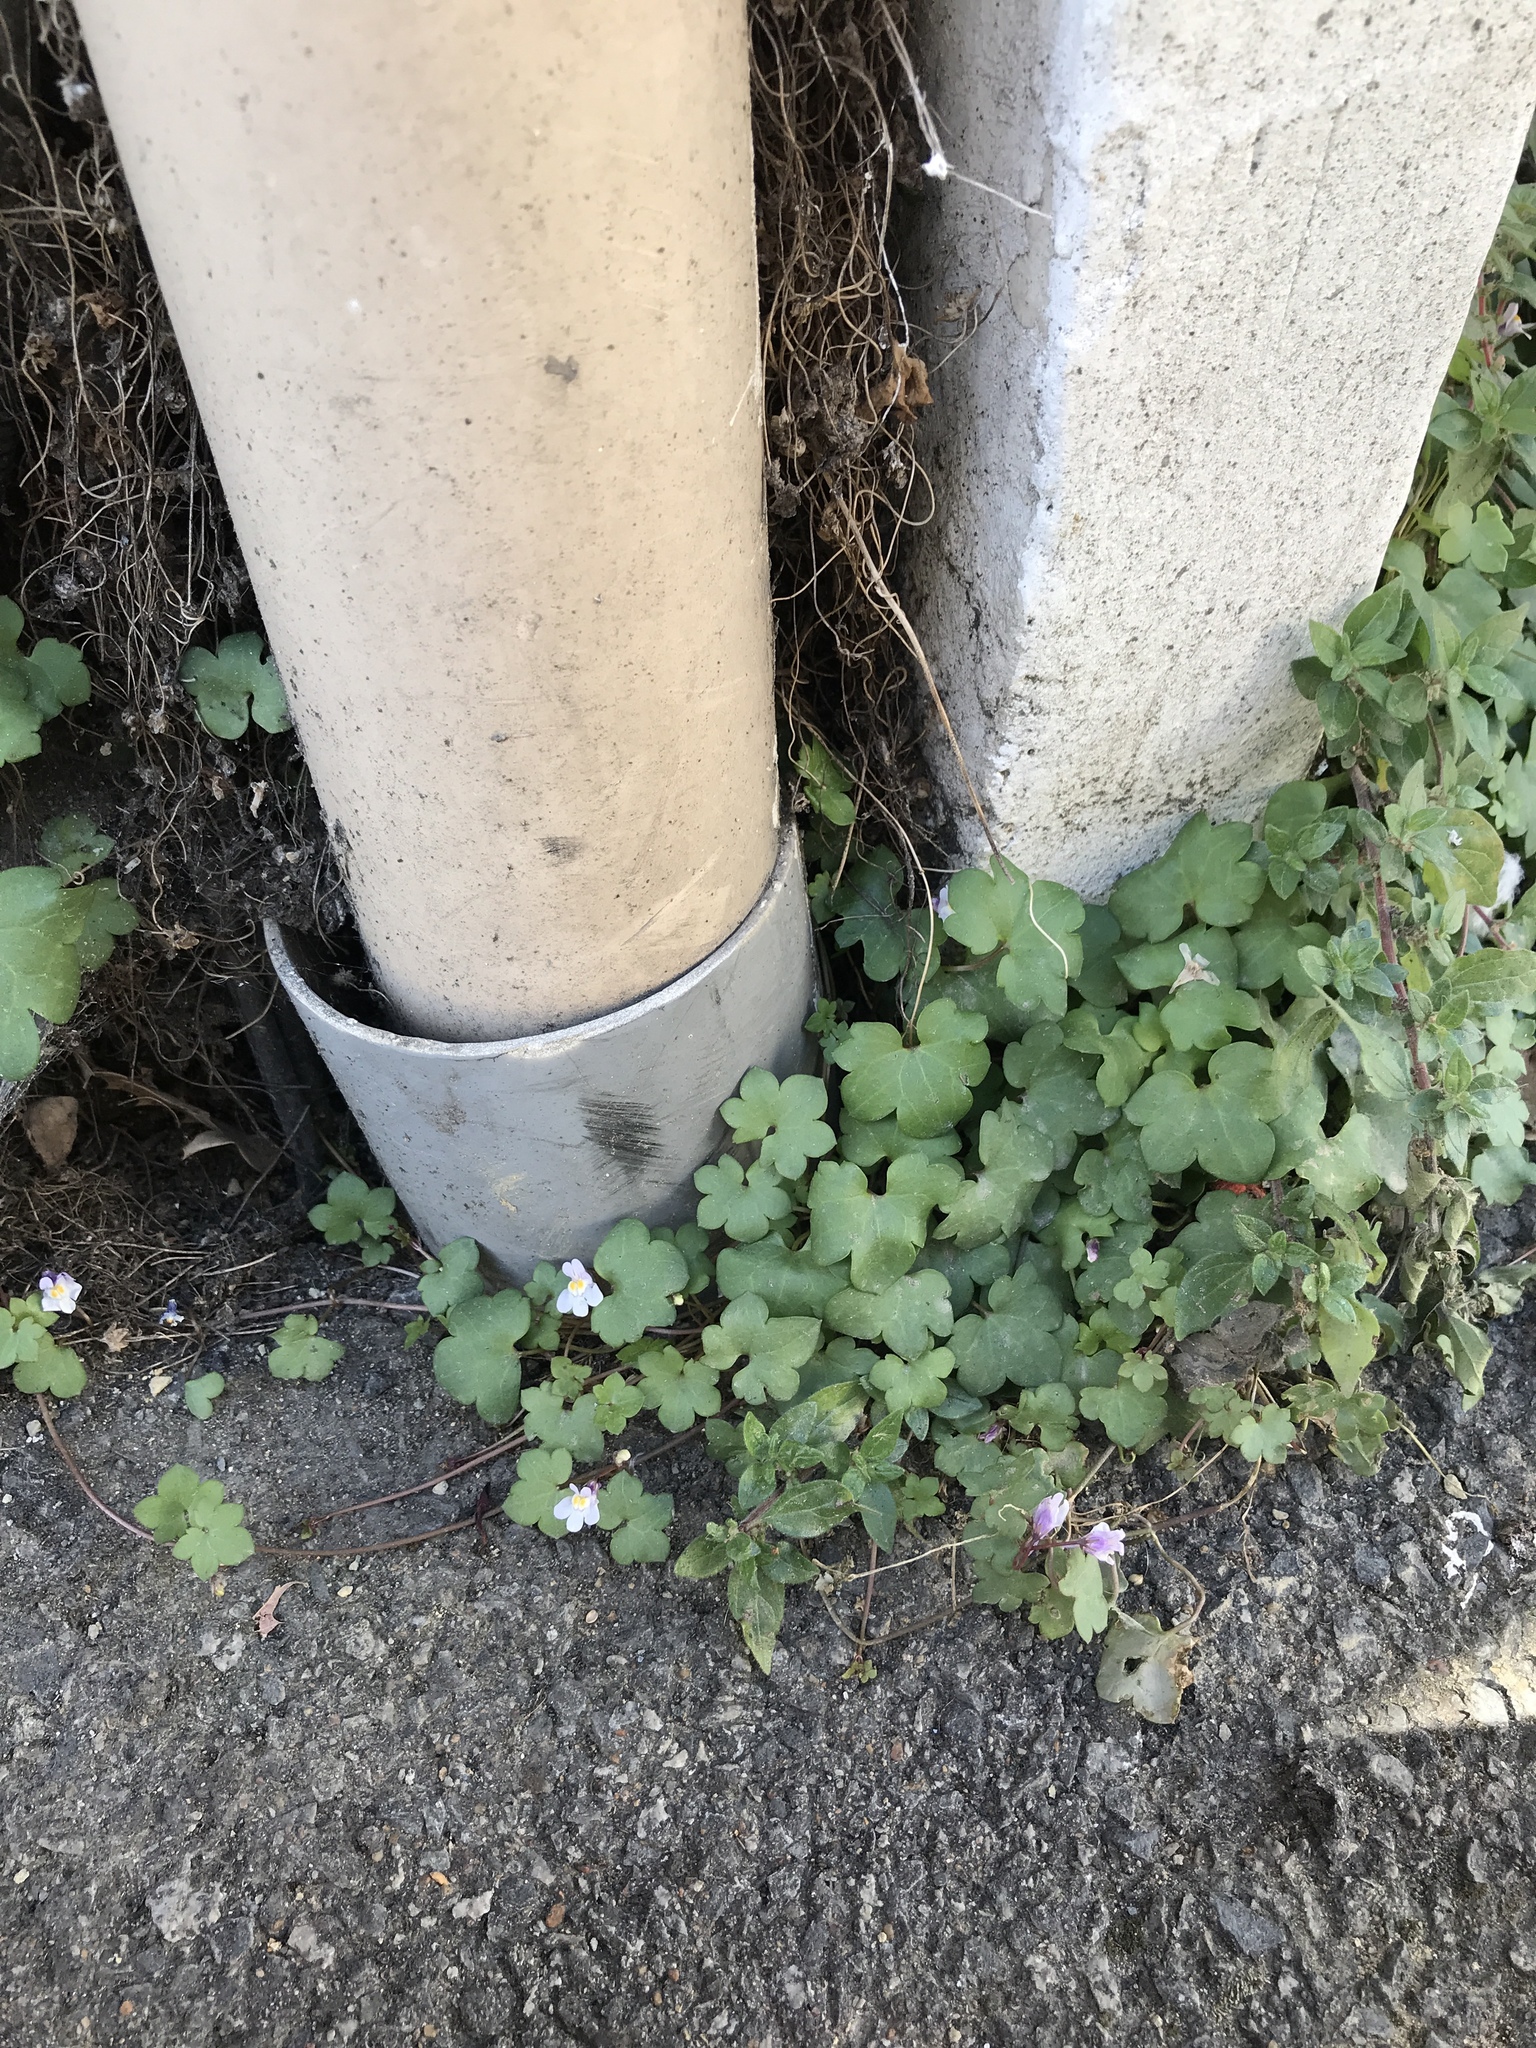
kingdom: Plantae
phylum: Tracheophyta
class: Magnoliopsida
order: Lamiales
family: Plantaginaceae
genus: Cymbalaria
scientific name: Cymbalaria muralis
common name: Ivy-leaved toadflax
